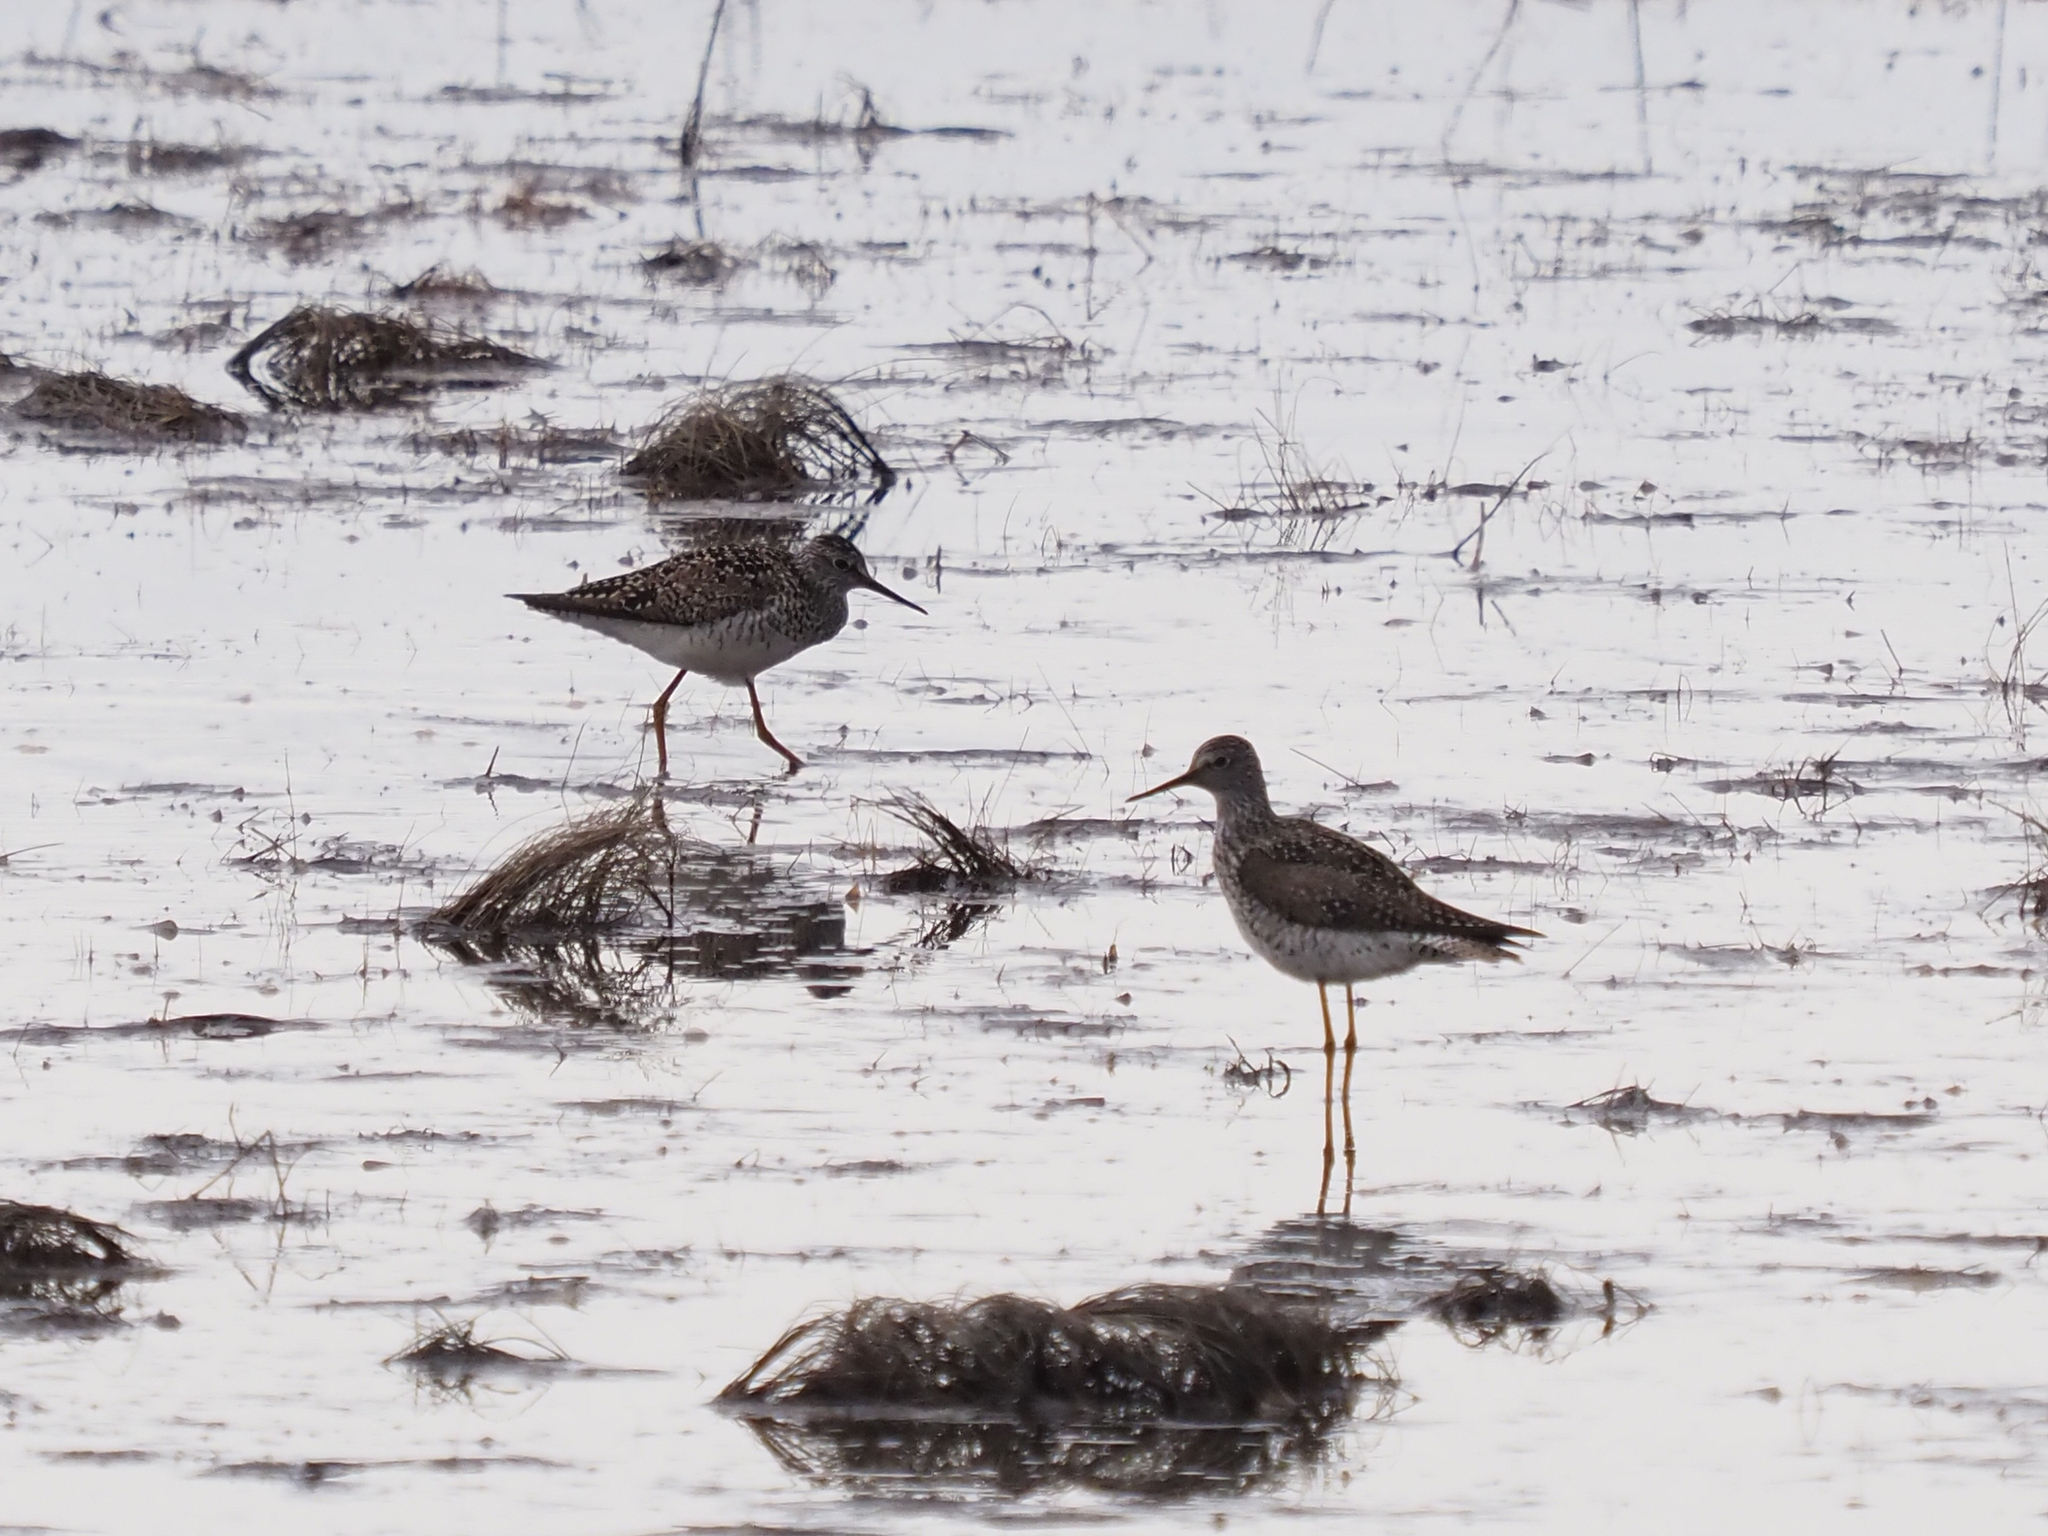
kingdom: Animalia
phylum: Chordata
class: Aves
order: Charadriiformes
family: Scolopacidae
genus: Tringa
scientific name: Tringa flavipes
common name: Lesser yellowlegs
